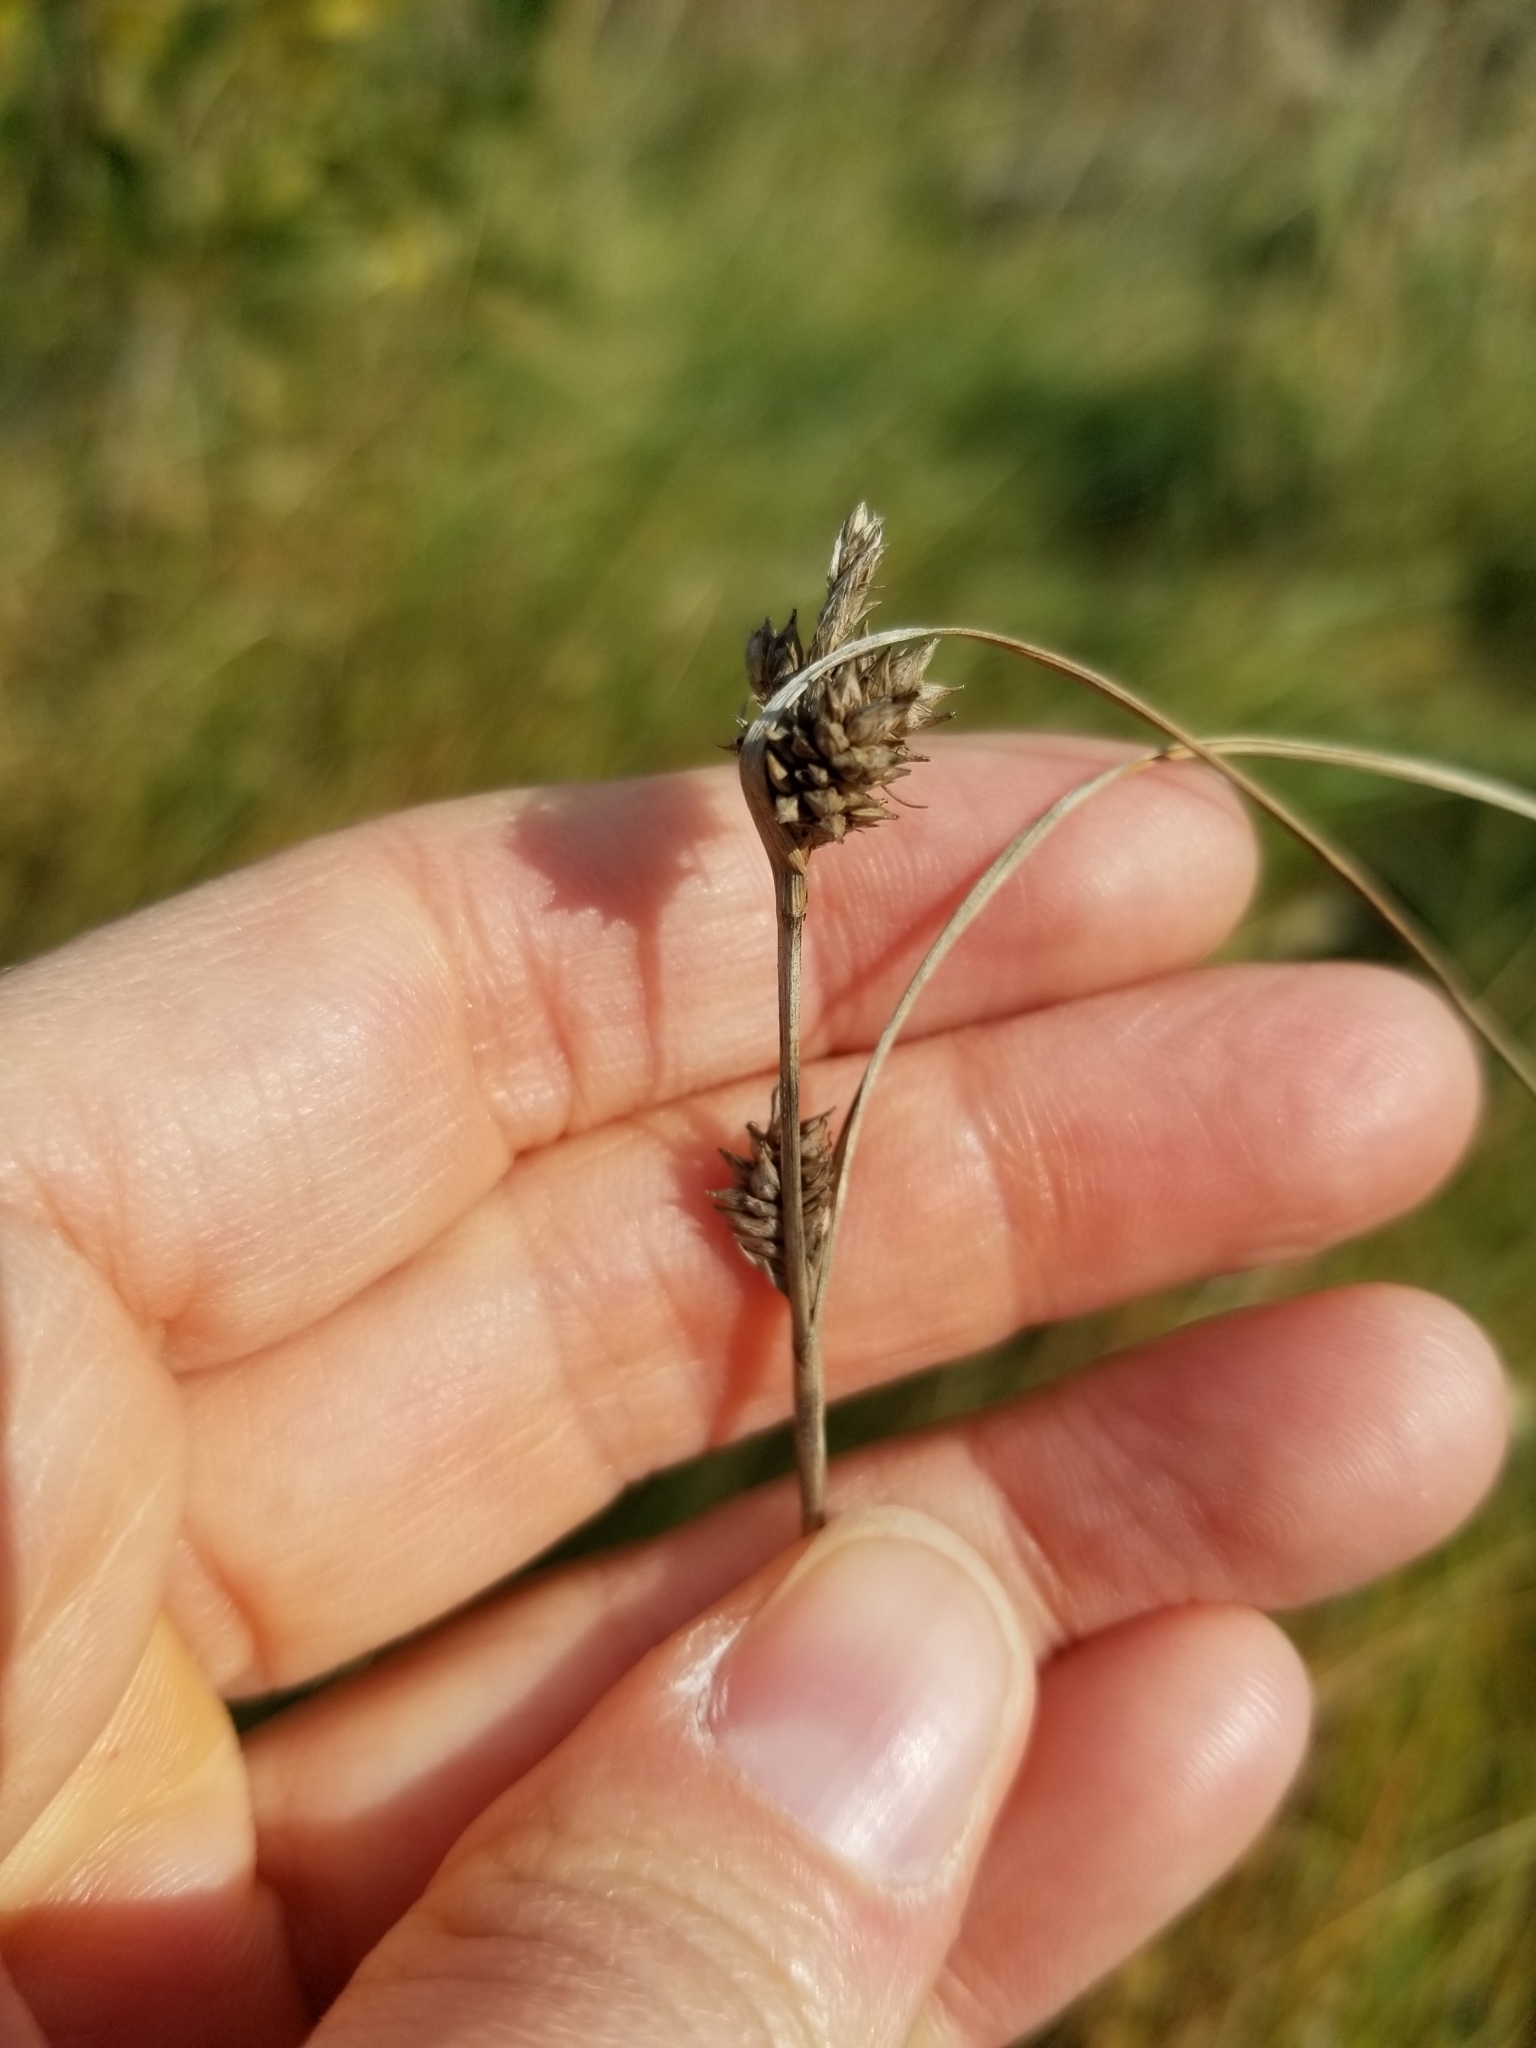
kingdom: Plantae
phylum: Tracheophyta
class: Liliopsida
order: Poales
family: Cyperaceae
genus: Carex
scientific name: Carex extensa
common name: Long-bracted sedge
